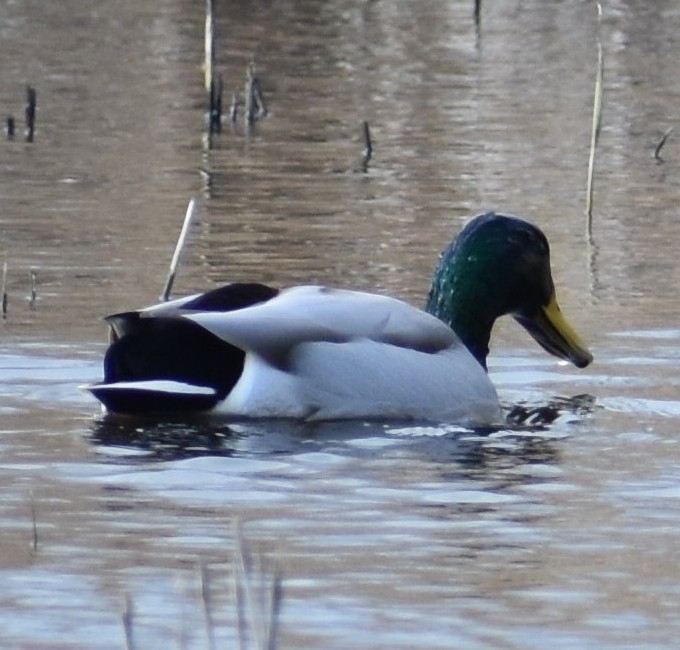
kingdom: Animalia
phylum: Chordata
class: Aves
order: Anseriformes
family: Anatidae
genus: Anas
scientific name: Anas platyrhynchos
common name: Mallard
